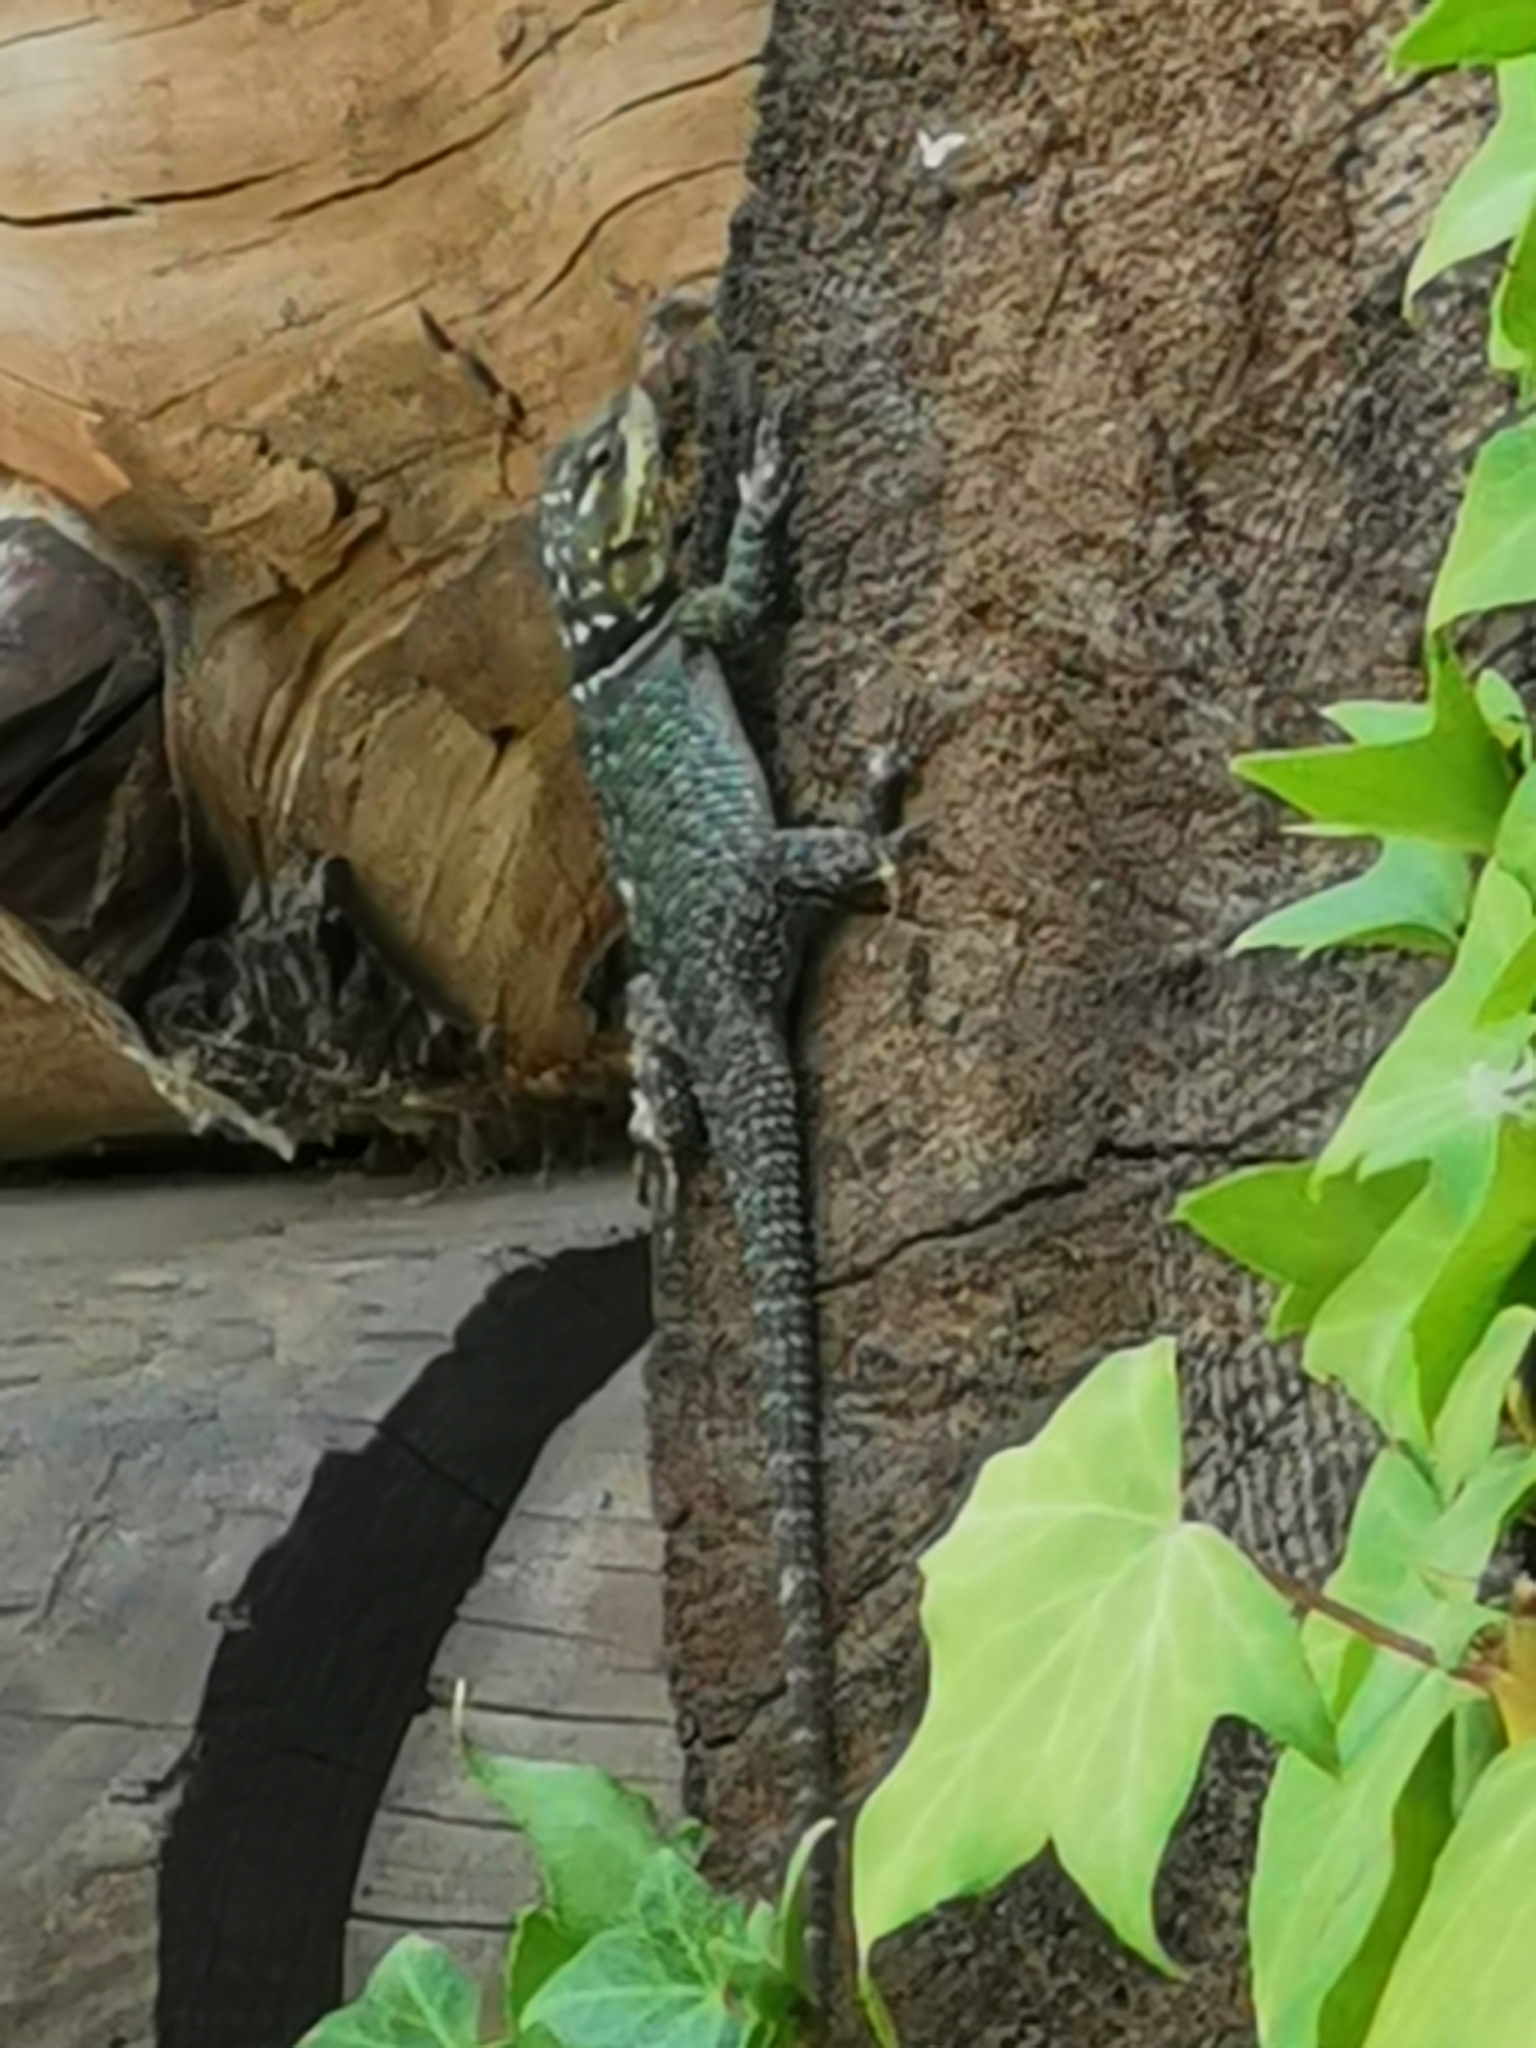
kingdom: Animalia
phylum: Chordata
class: Squamata
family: Phrynosomatidae
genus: Sceloporus
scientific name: Sceloporus cyanogenys
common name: Blue spiny lizard
